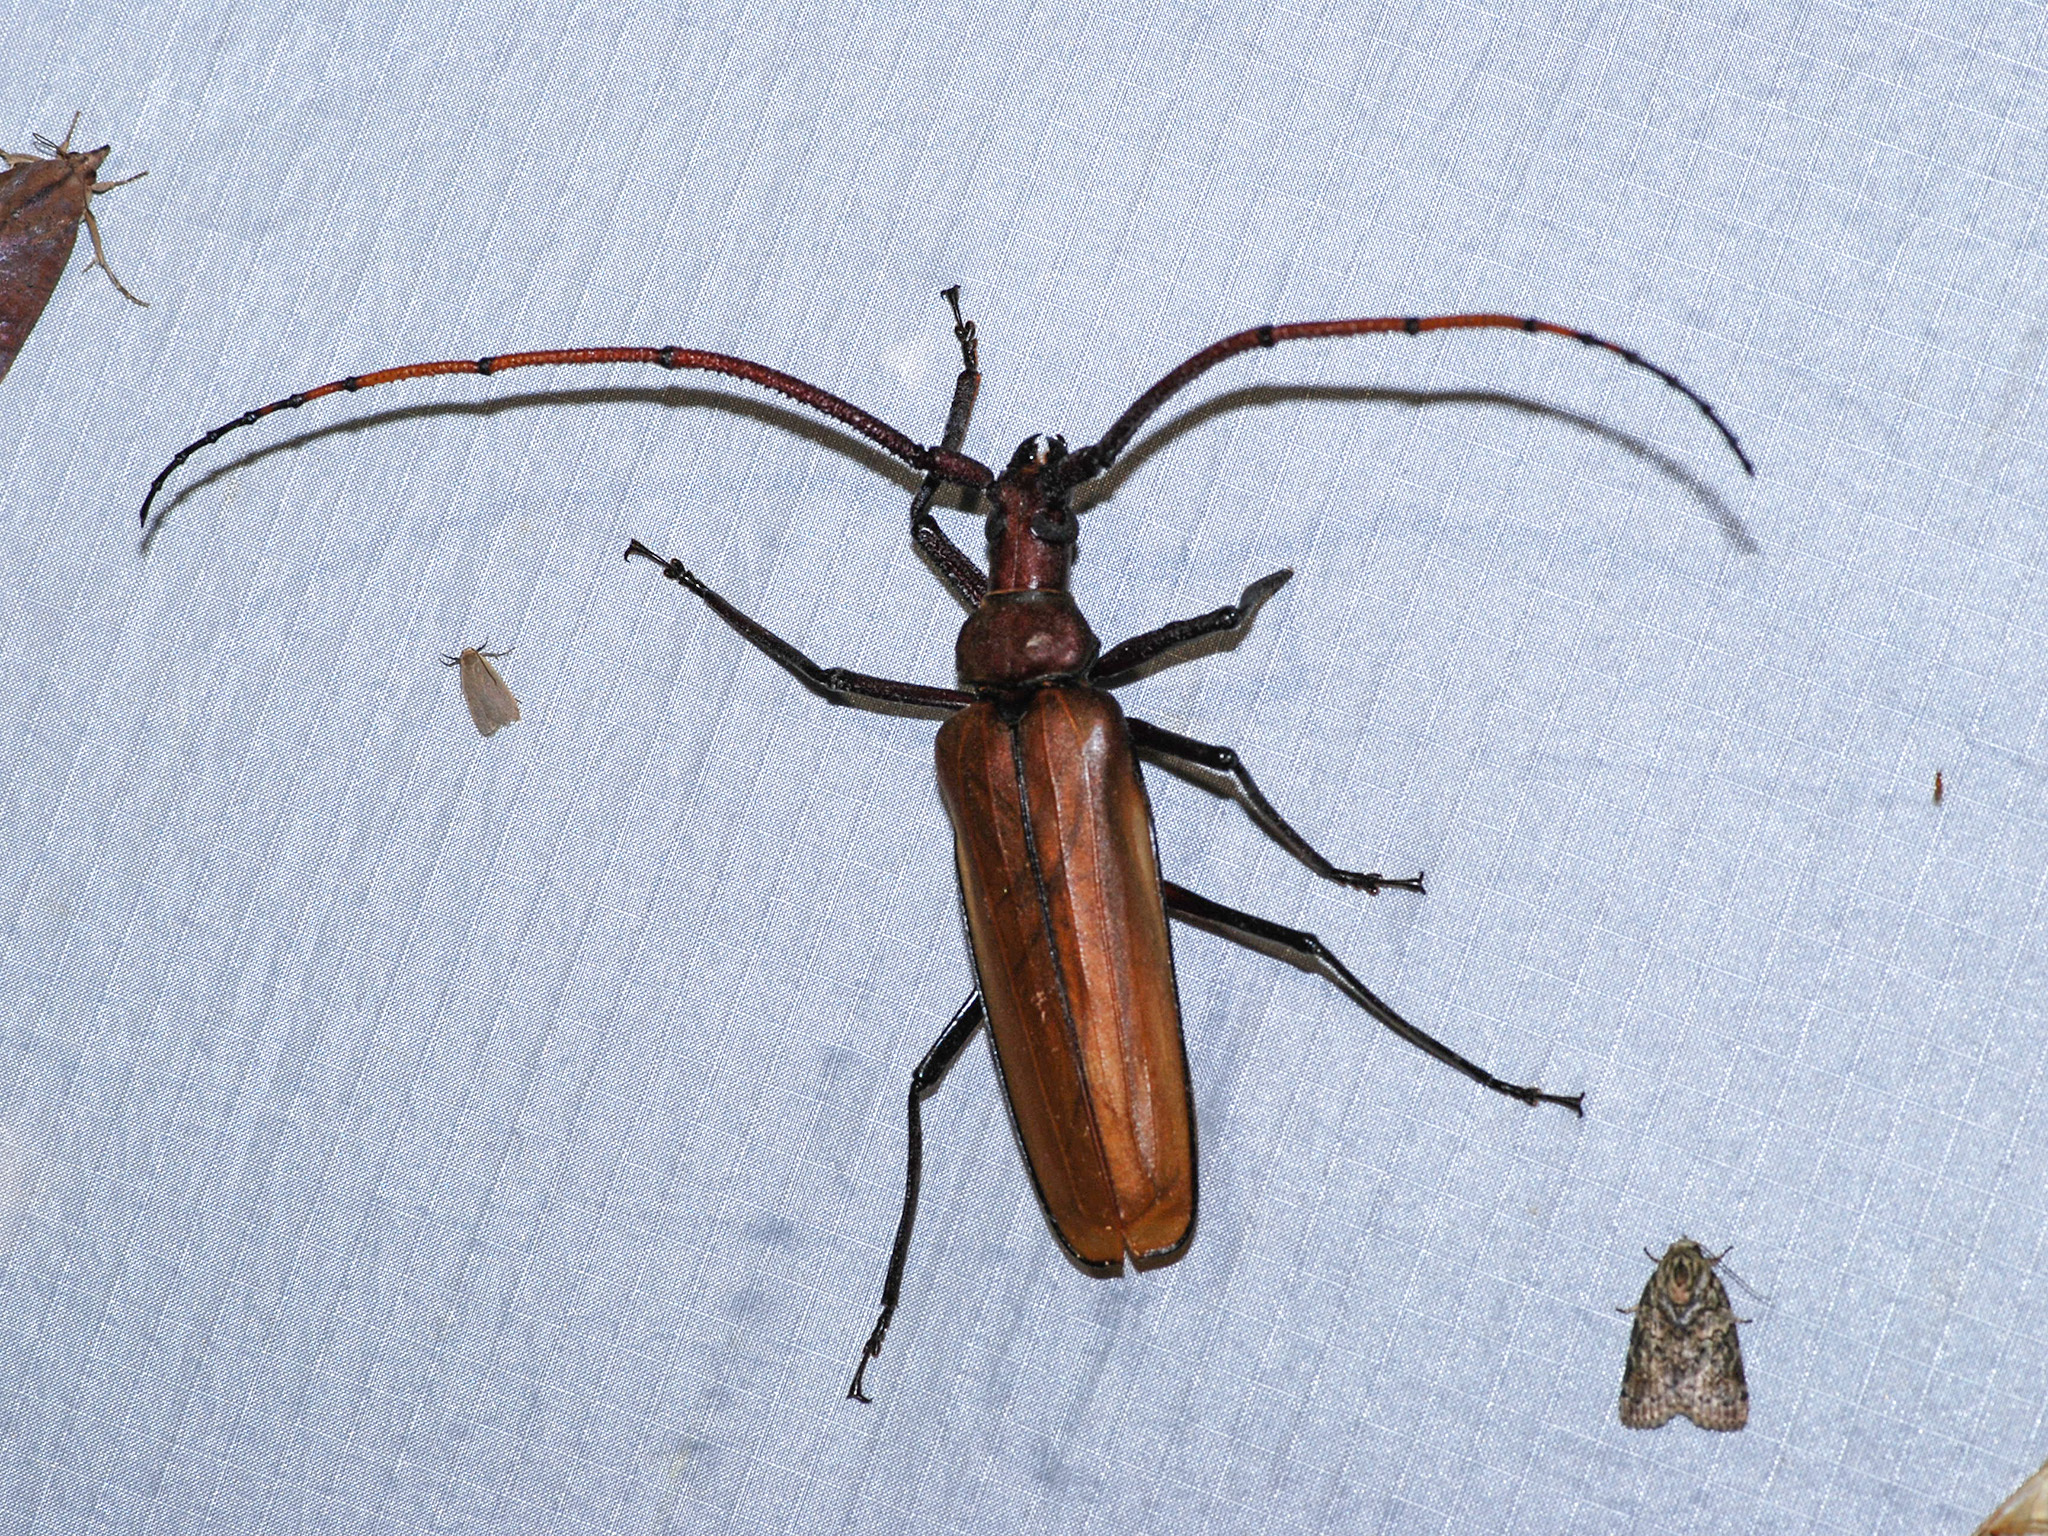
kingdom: Animalia
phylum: Arthropoda
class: Insecta
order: Coleoptera
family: Cerambycidae
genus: Aegosoma
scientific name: Aegosoma giganteum
